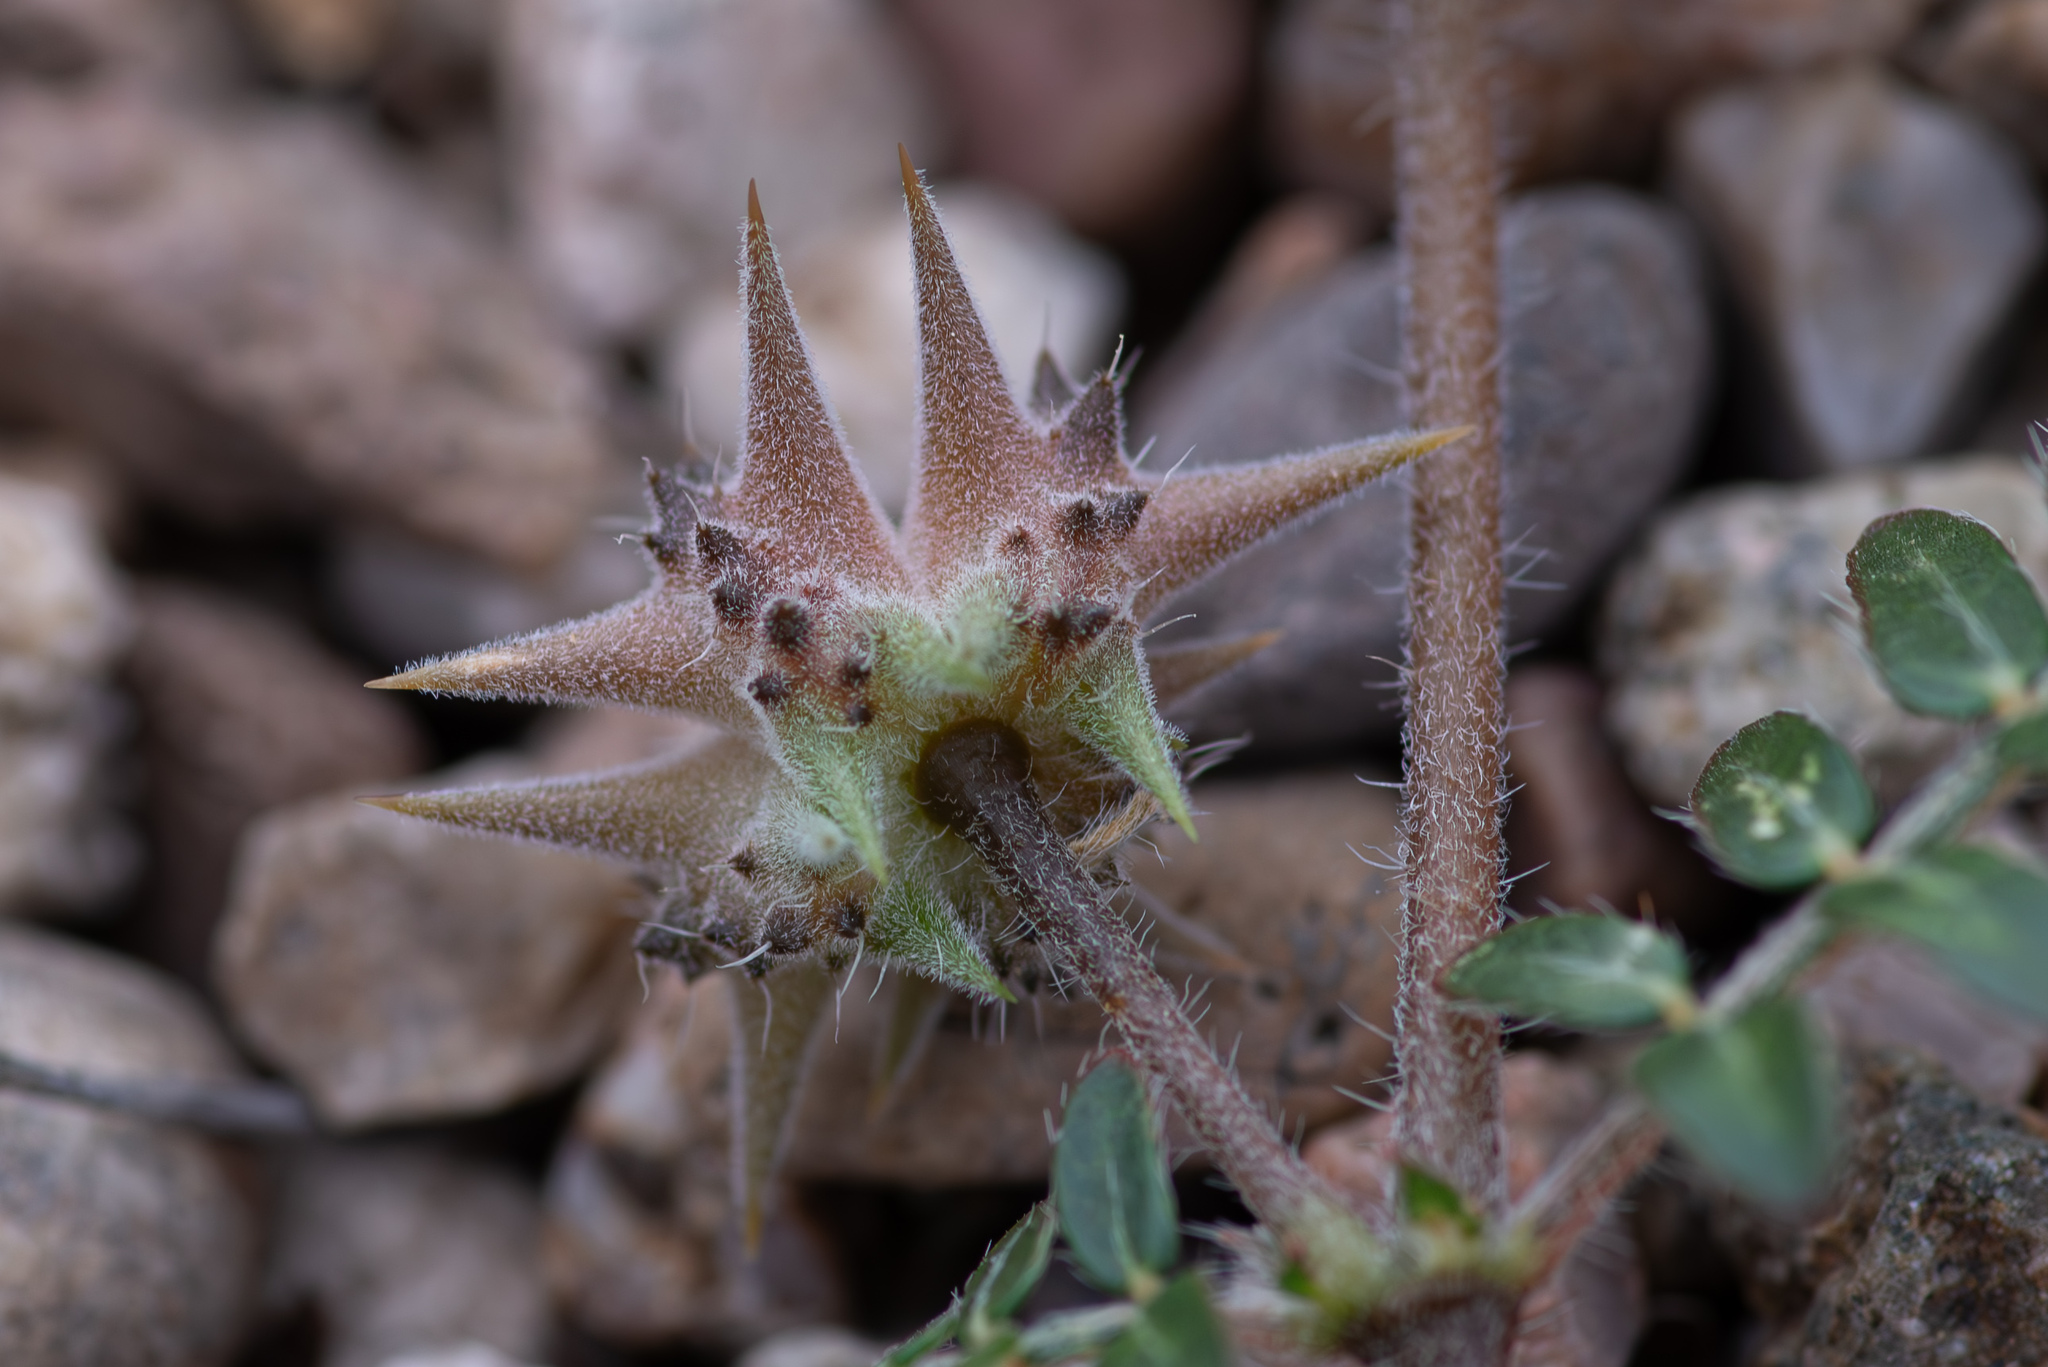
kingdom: Plantae
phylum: Tracheophyta
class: Magnoliopsida
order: Zygophyllales
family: Zygophyllaceae
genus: Tribulus
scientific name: Tribulus terrestris
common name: Puncturevine
